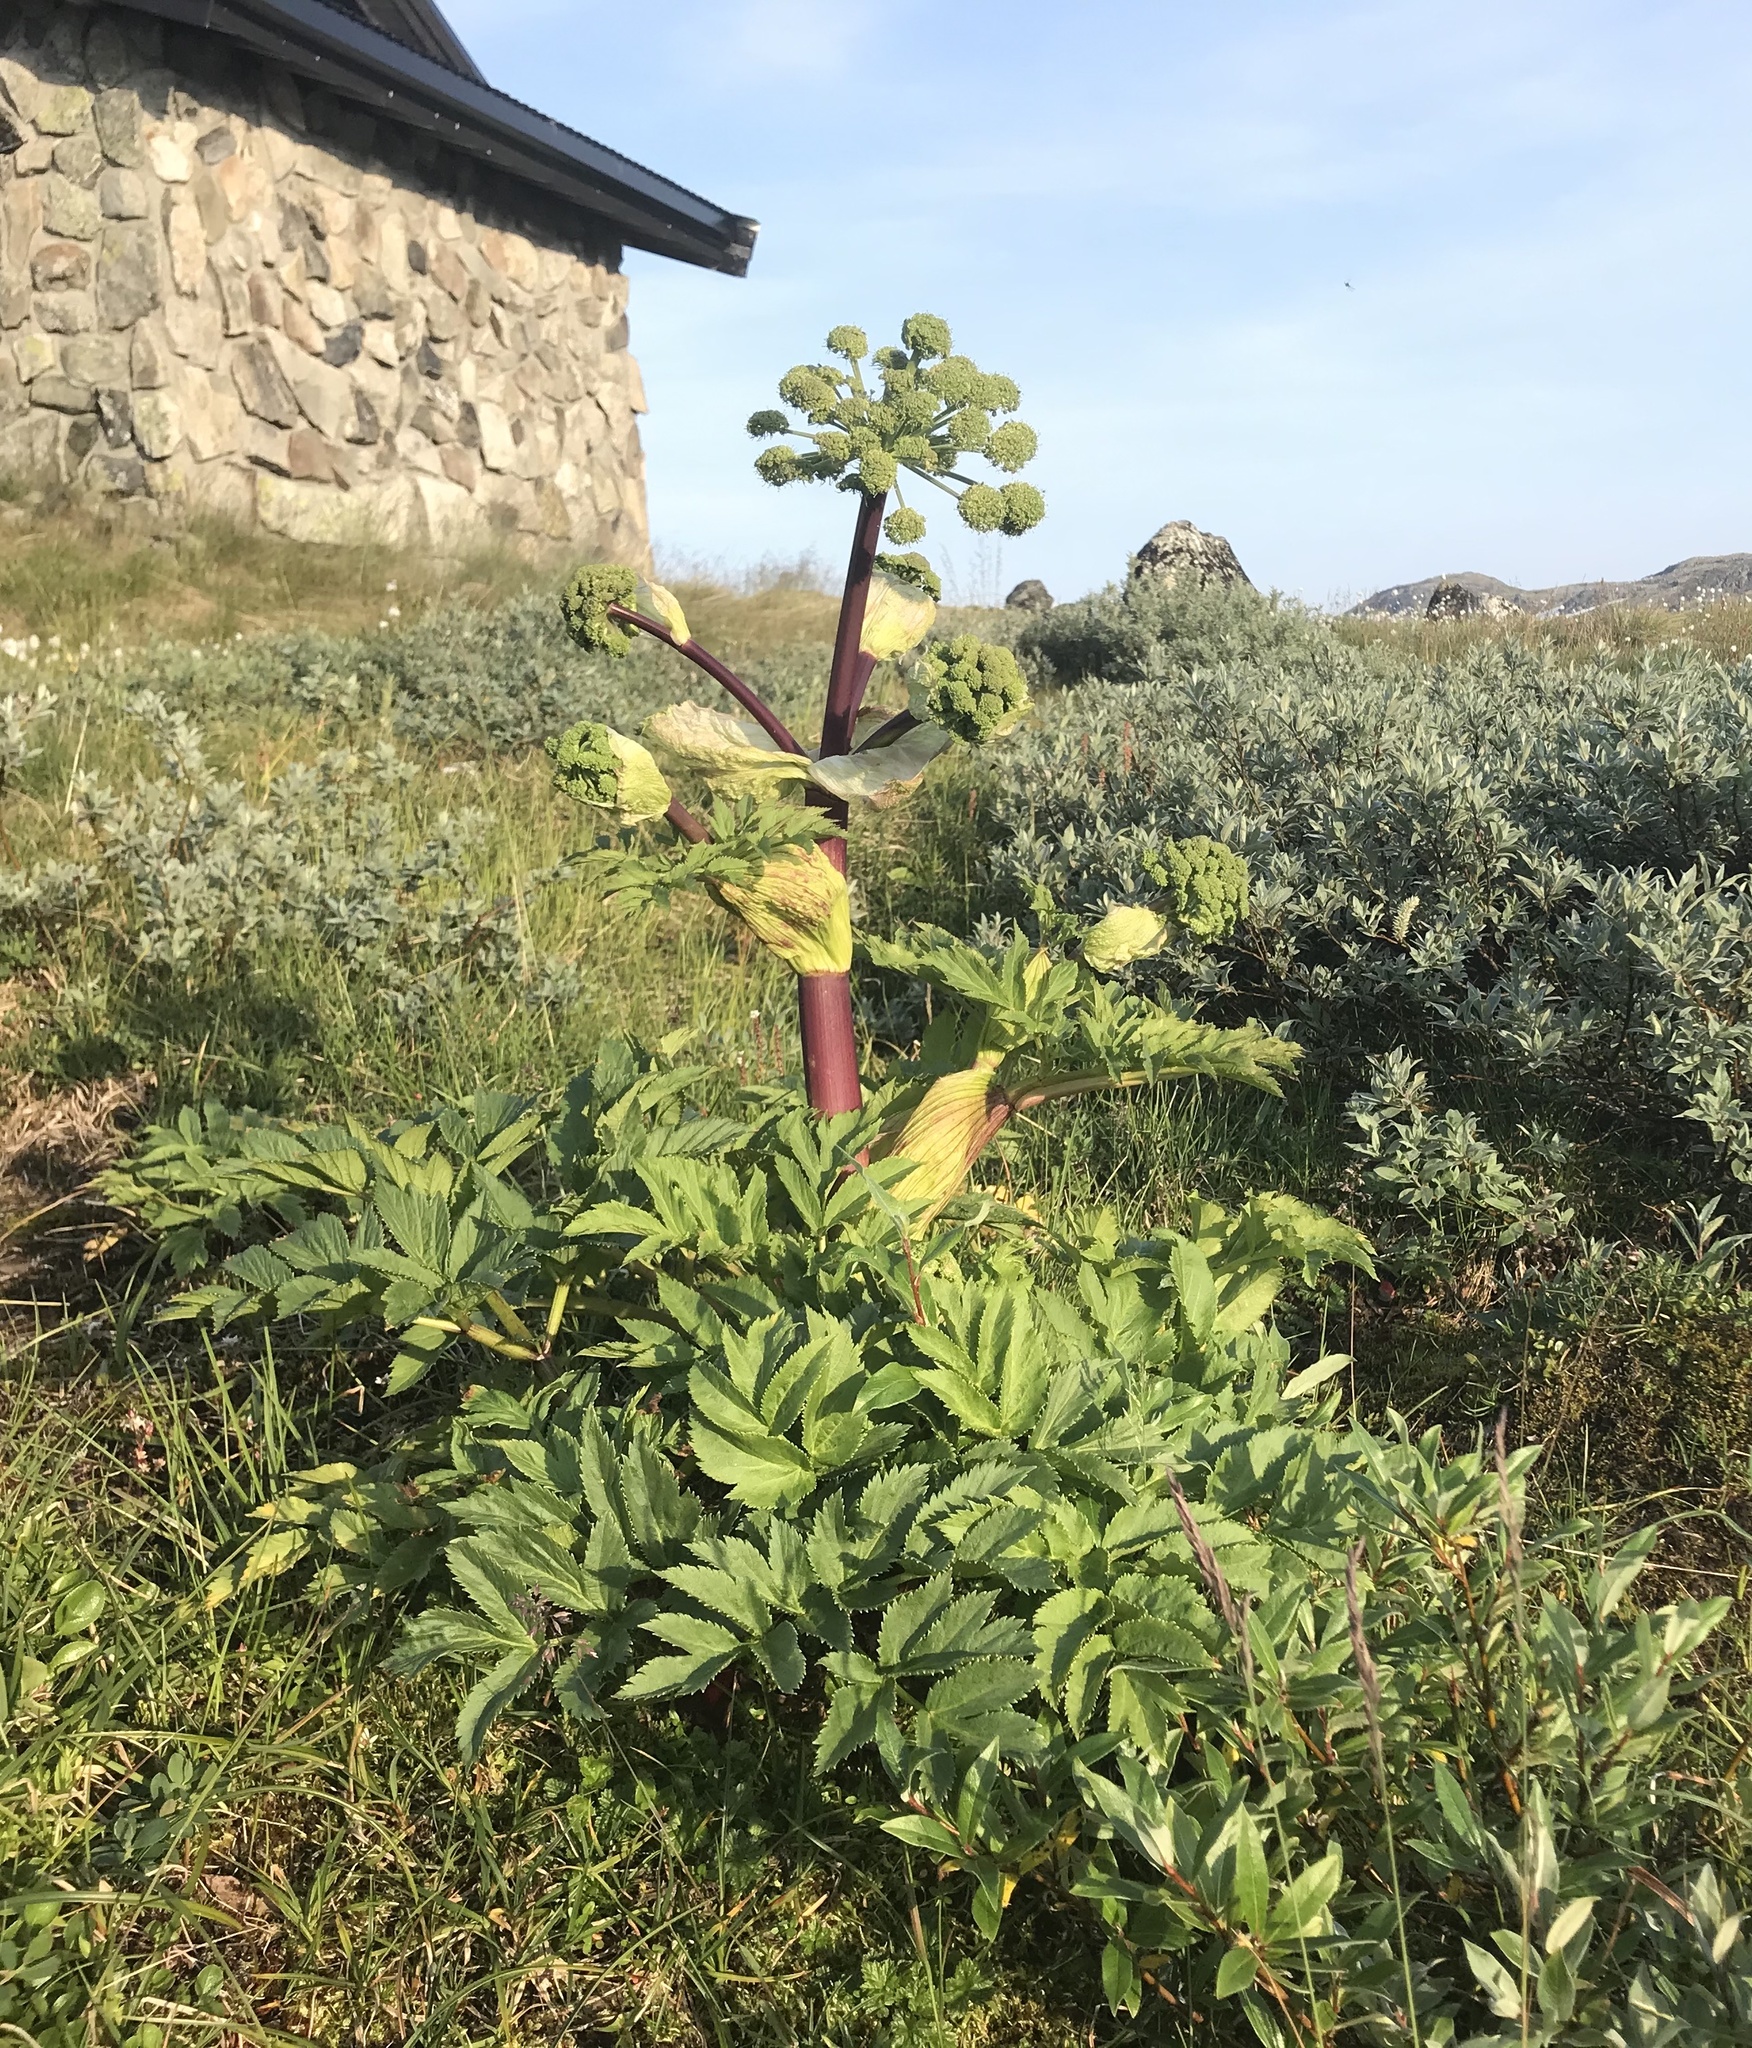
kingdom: Plantae
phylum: Tracheophyta
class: Magnoliopsida
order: Apiales
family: Apiaceae
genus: Angelica
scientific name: Angelica archangelica
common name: Garden angelica
